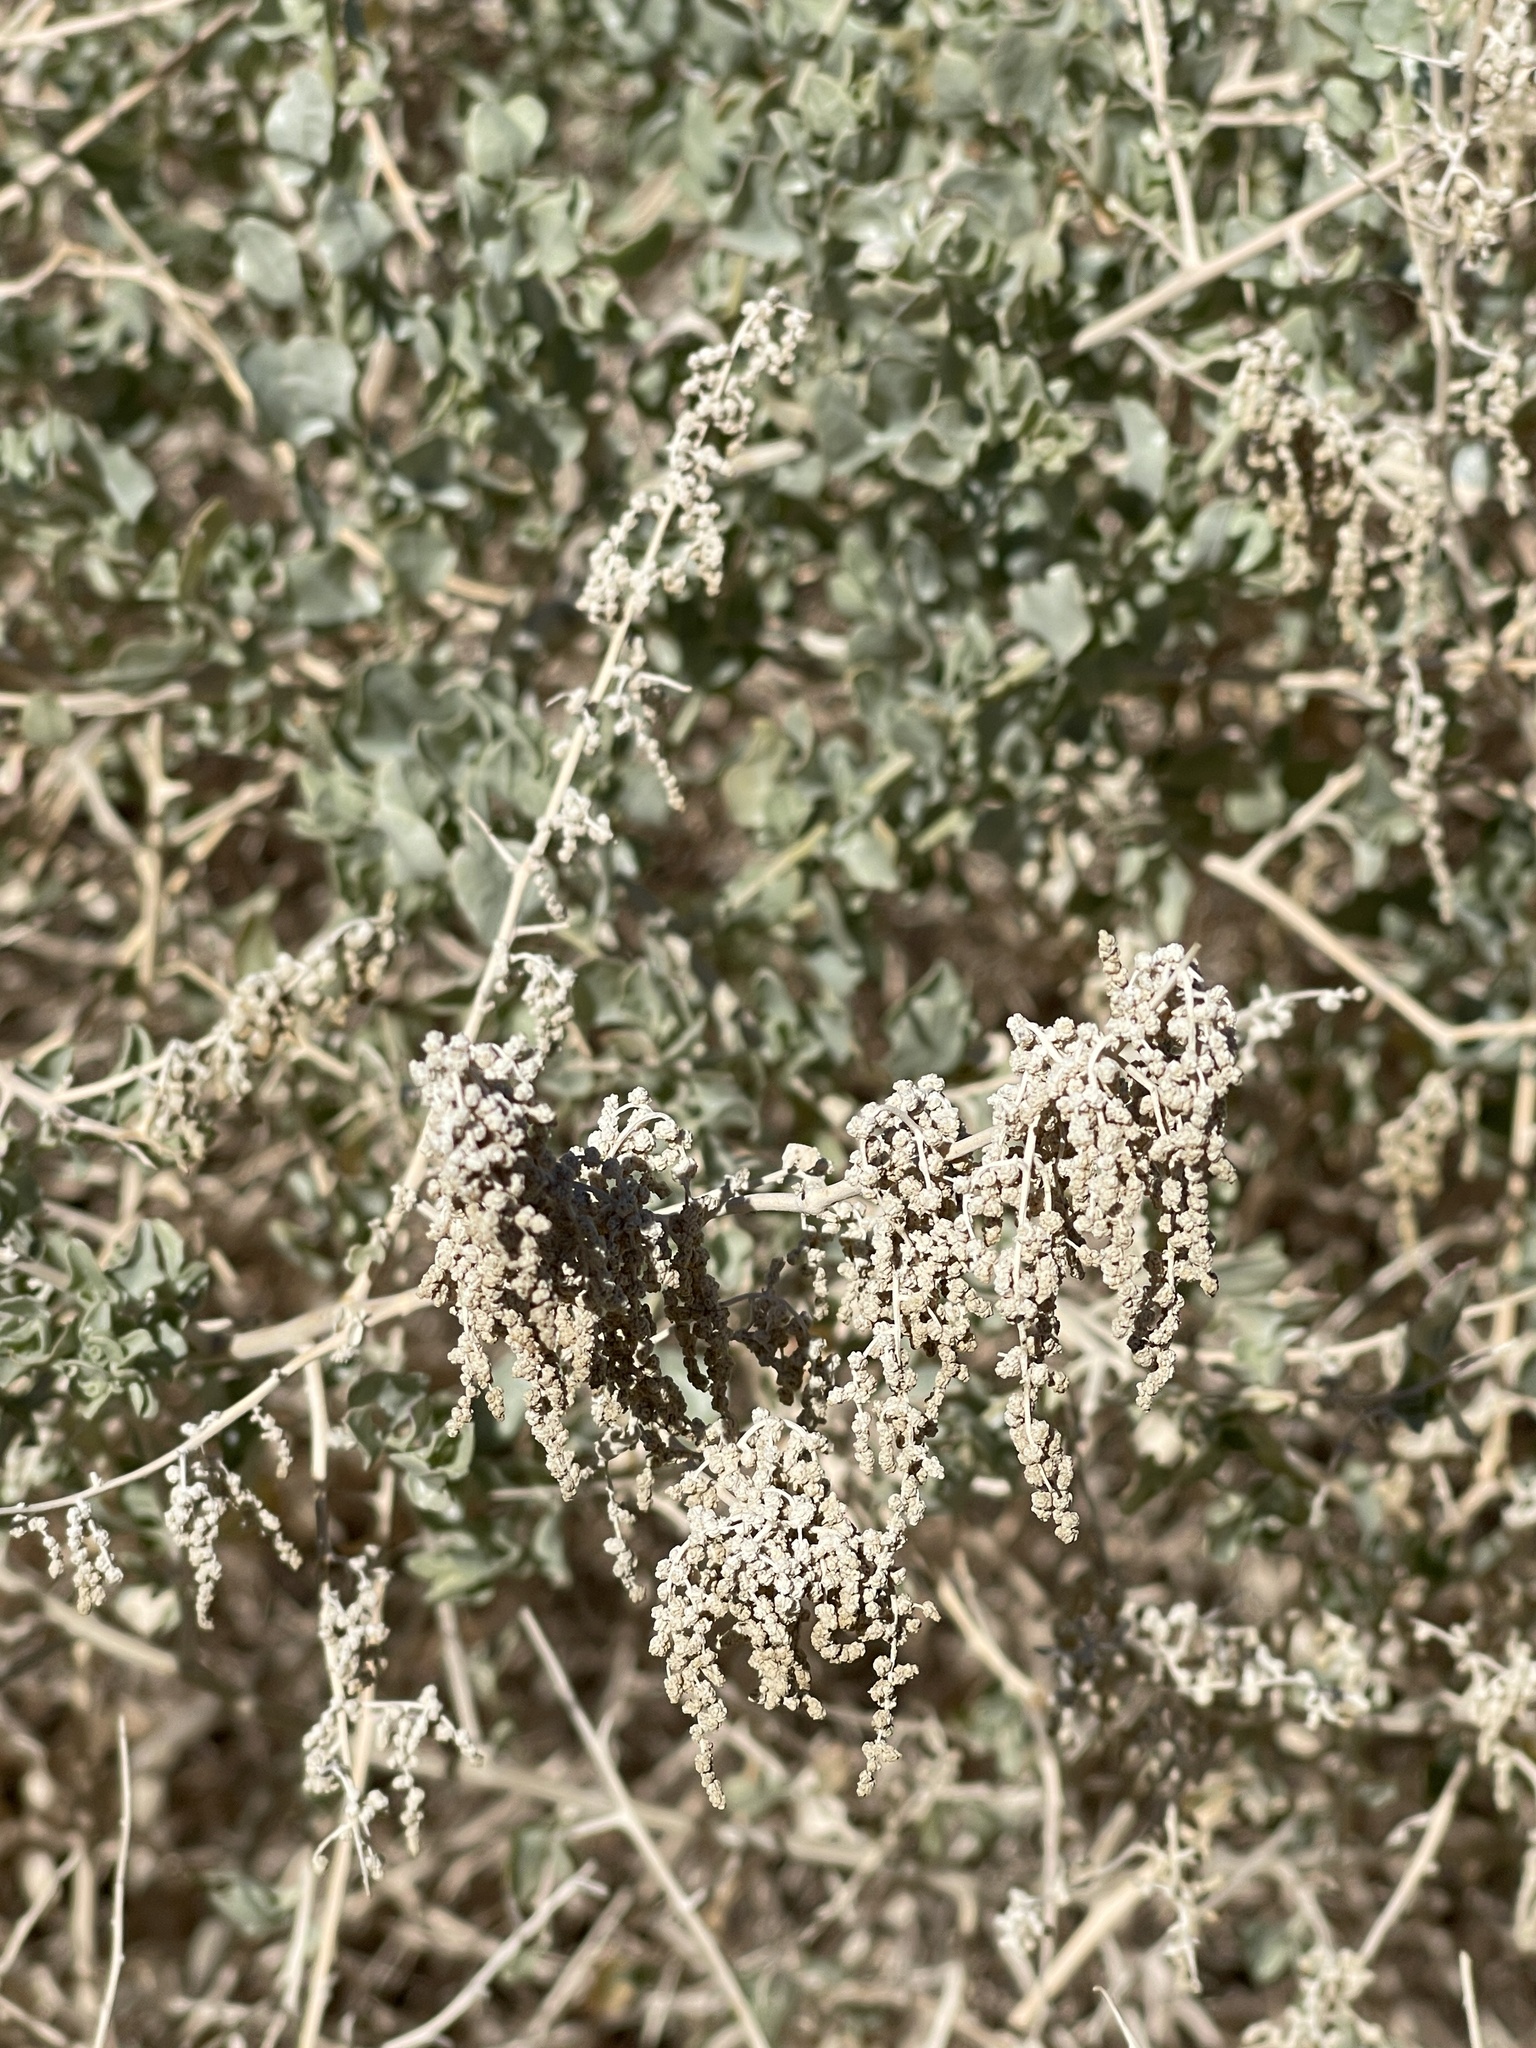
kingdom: Plantae
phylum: Tracheophyta
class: Magnoliopsida
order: Caryophyllales
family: Amaranthaceae
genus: Atriplex
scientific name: Atriplex lentiformis
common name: Big saltbush
